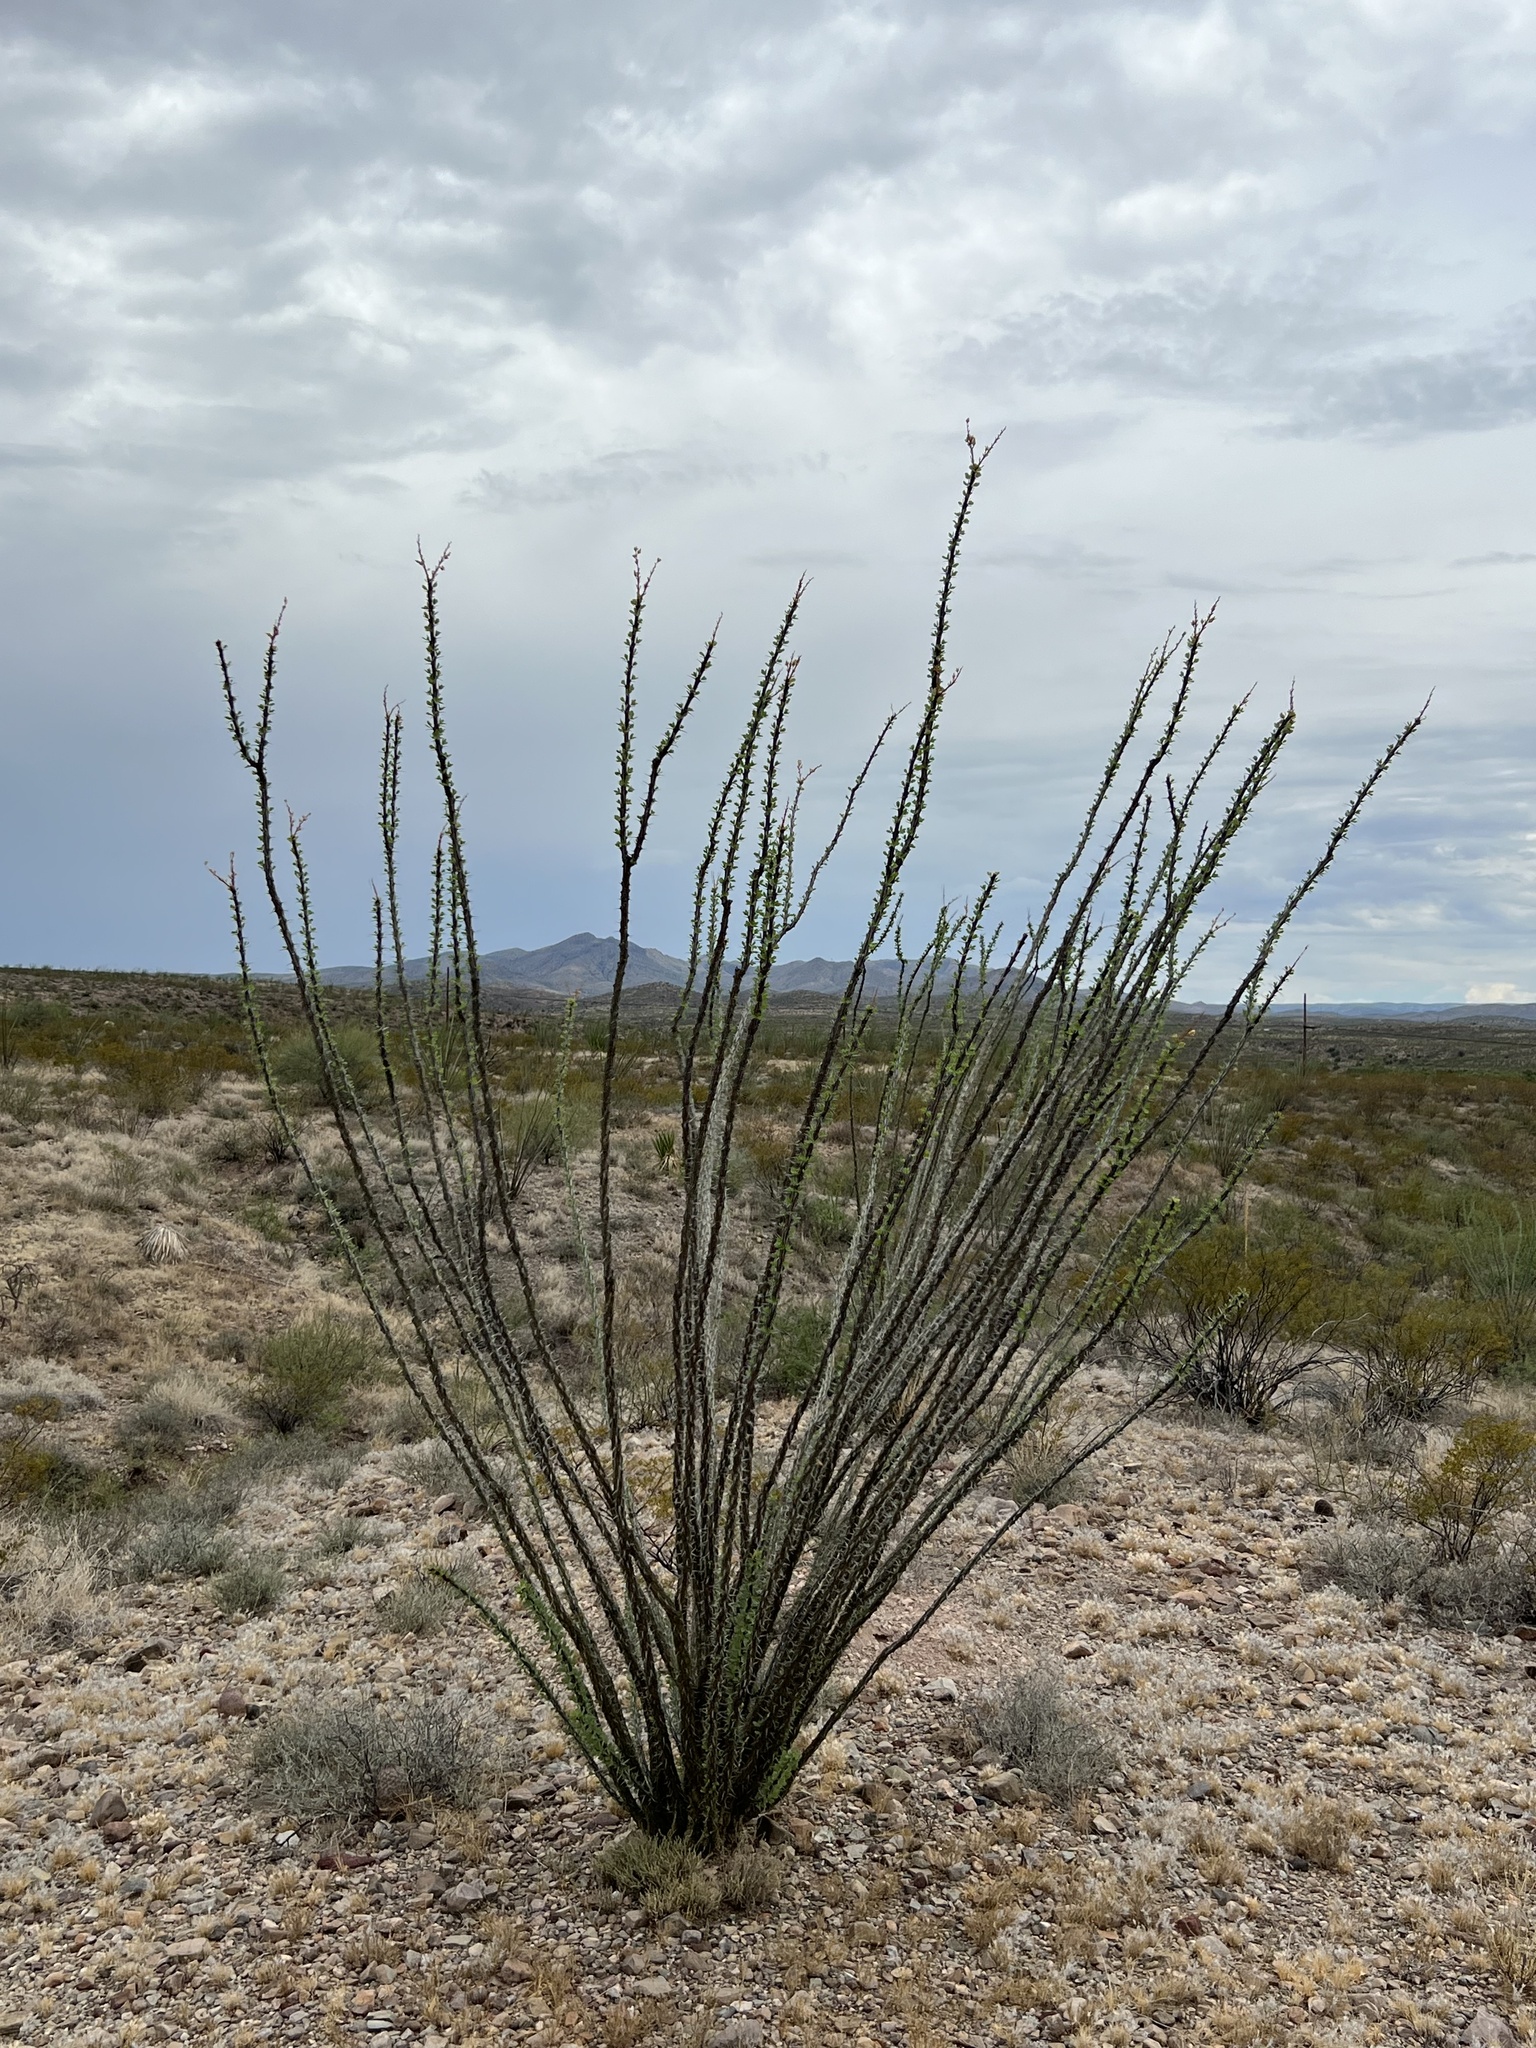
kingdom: Plantae
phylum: Tracheophyta
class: Magnoliopsida
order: Ericales
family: Fouquieriaceae
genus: Fouquieria
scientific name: Fouquieria splendens
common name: Vine-cactus
